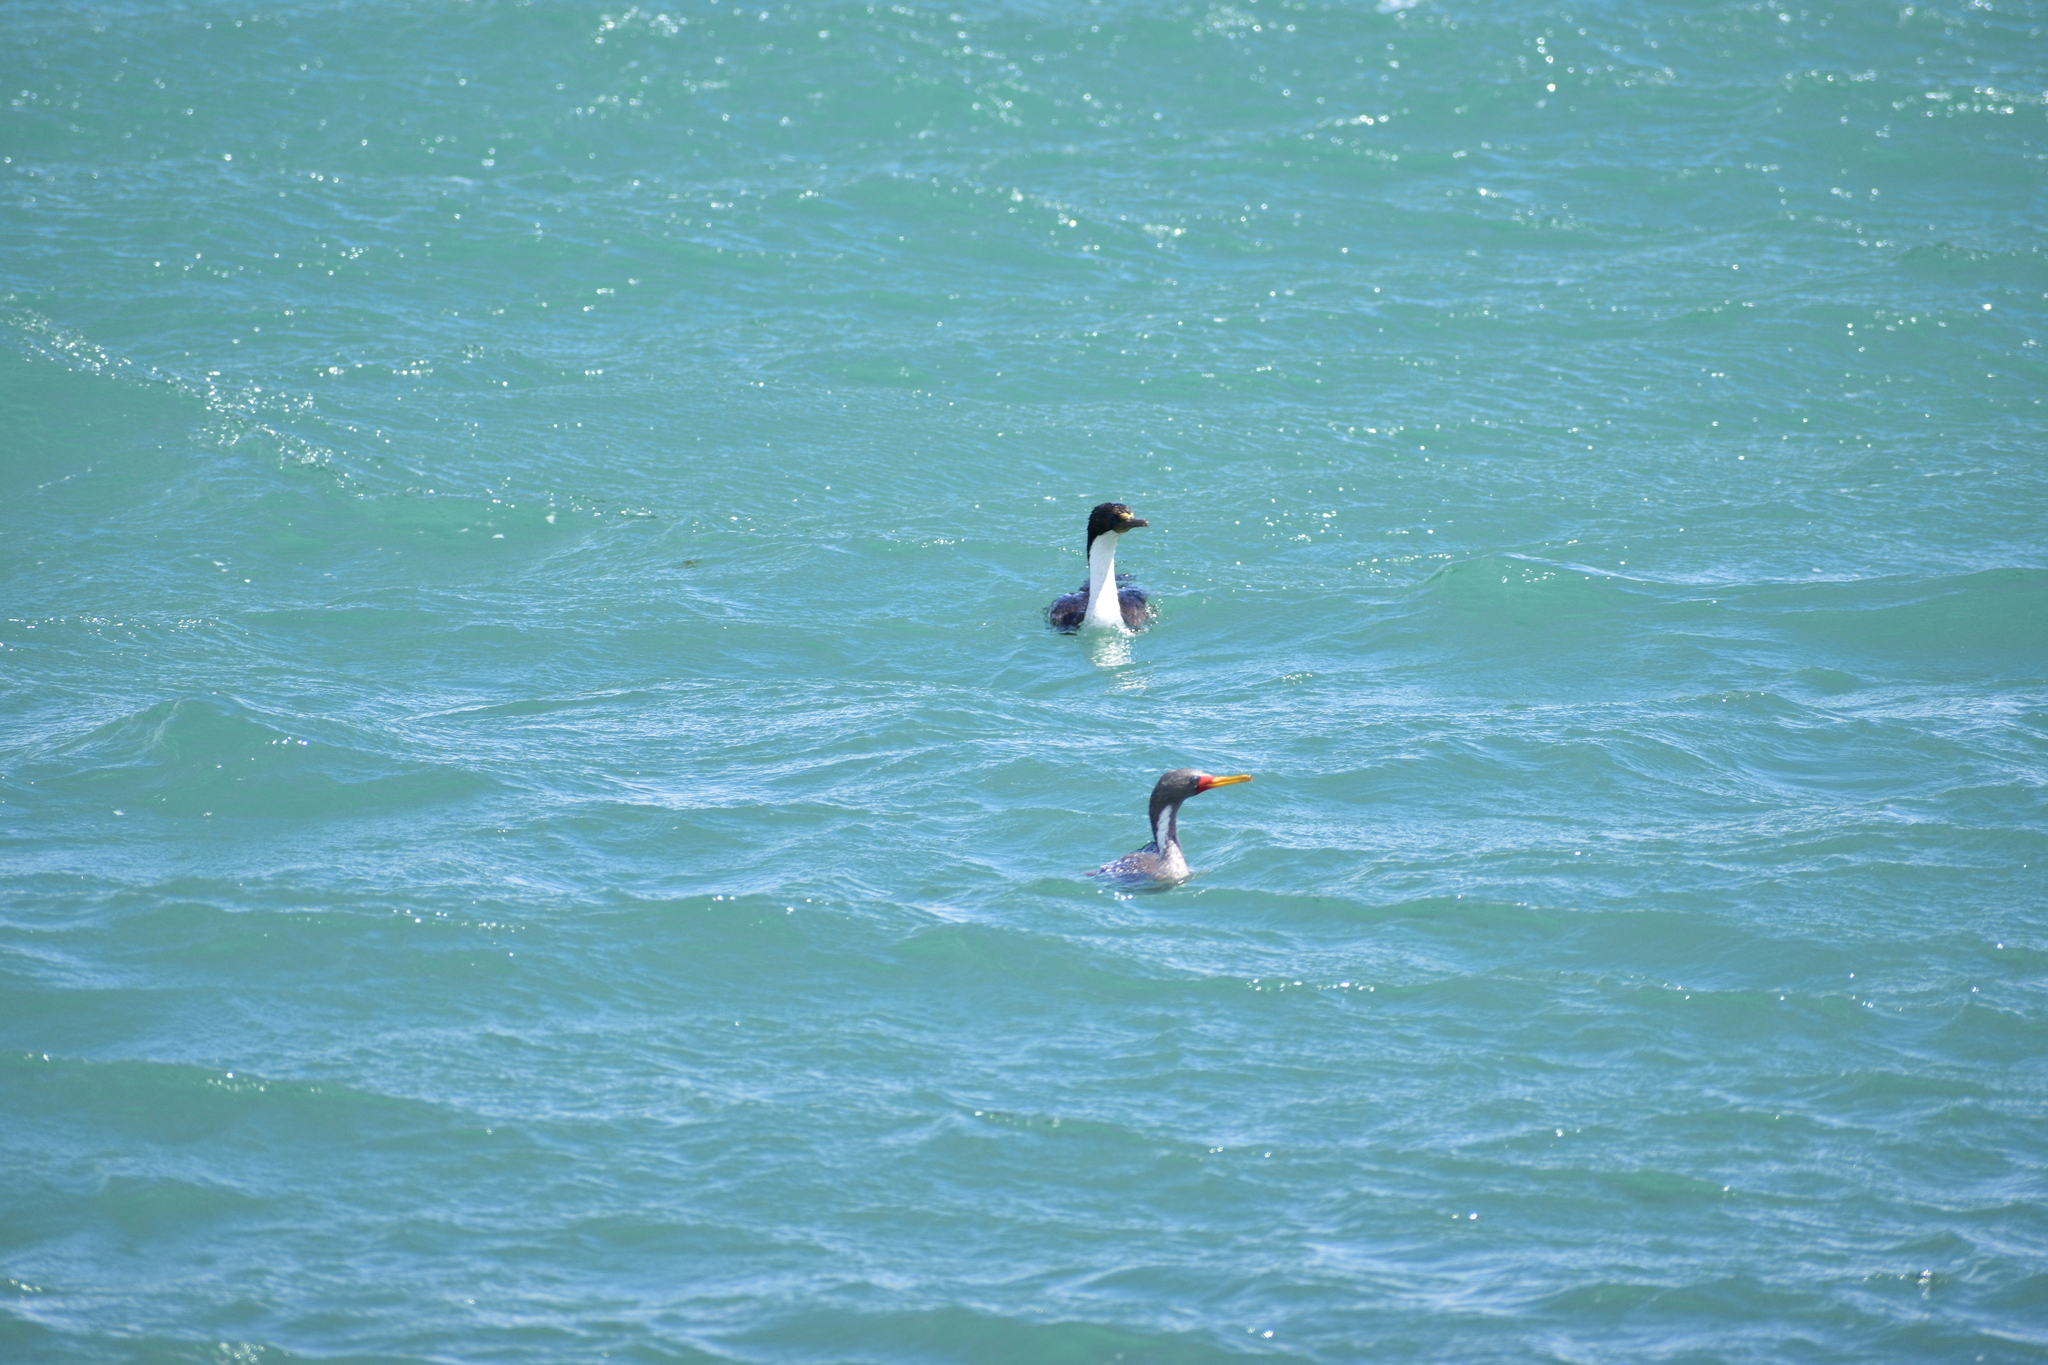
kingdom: Animalia
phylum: Chordata
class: Aves
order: Suliformes
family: Phalacrocoracidae
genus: Phalacrocorax
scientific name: Phalacrocorax gaimardi
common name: Red-legged cormorant
